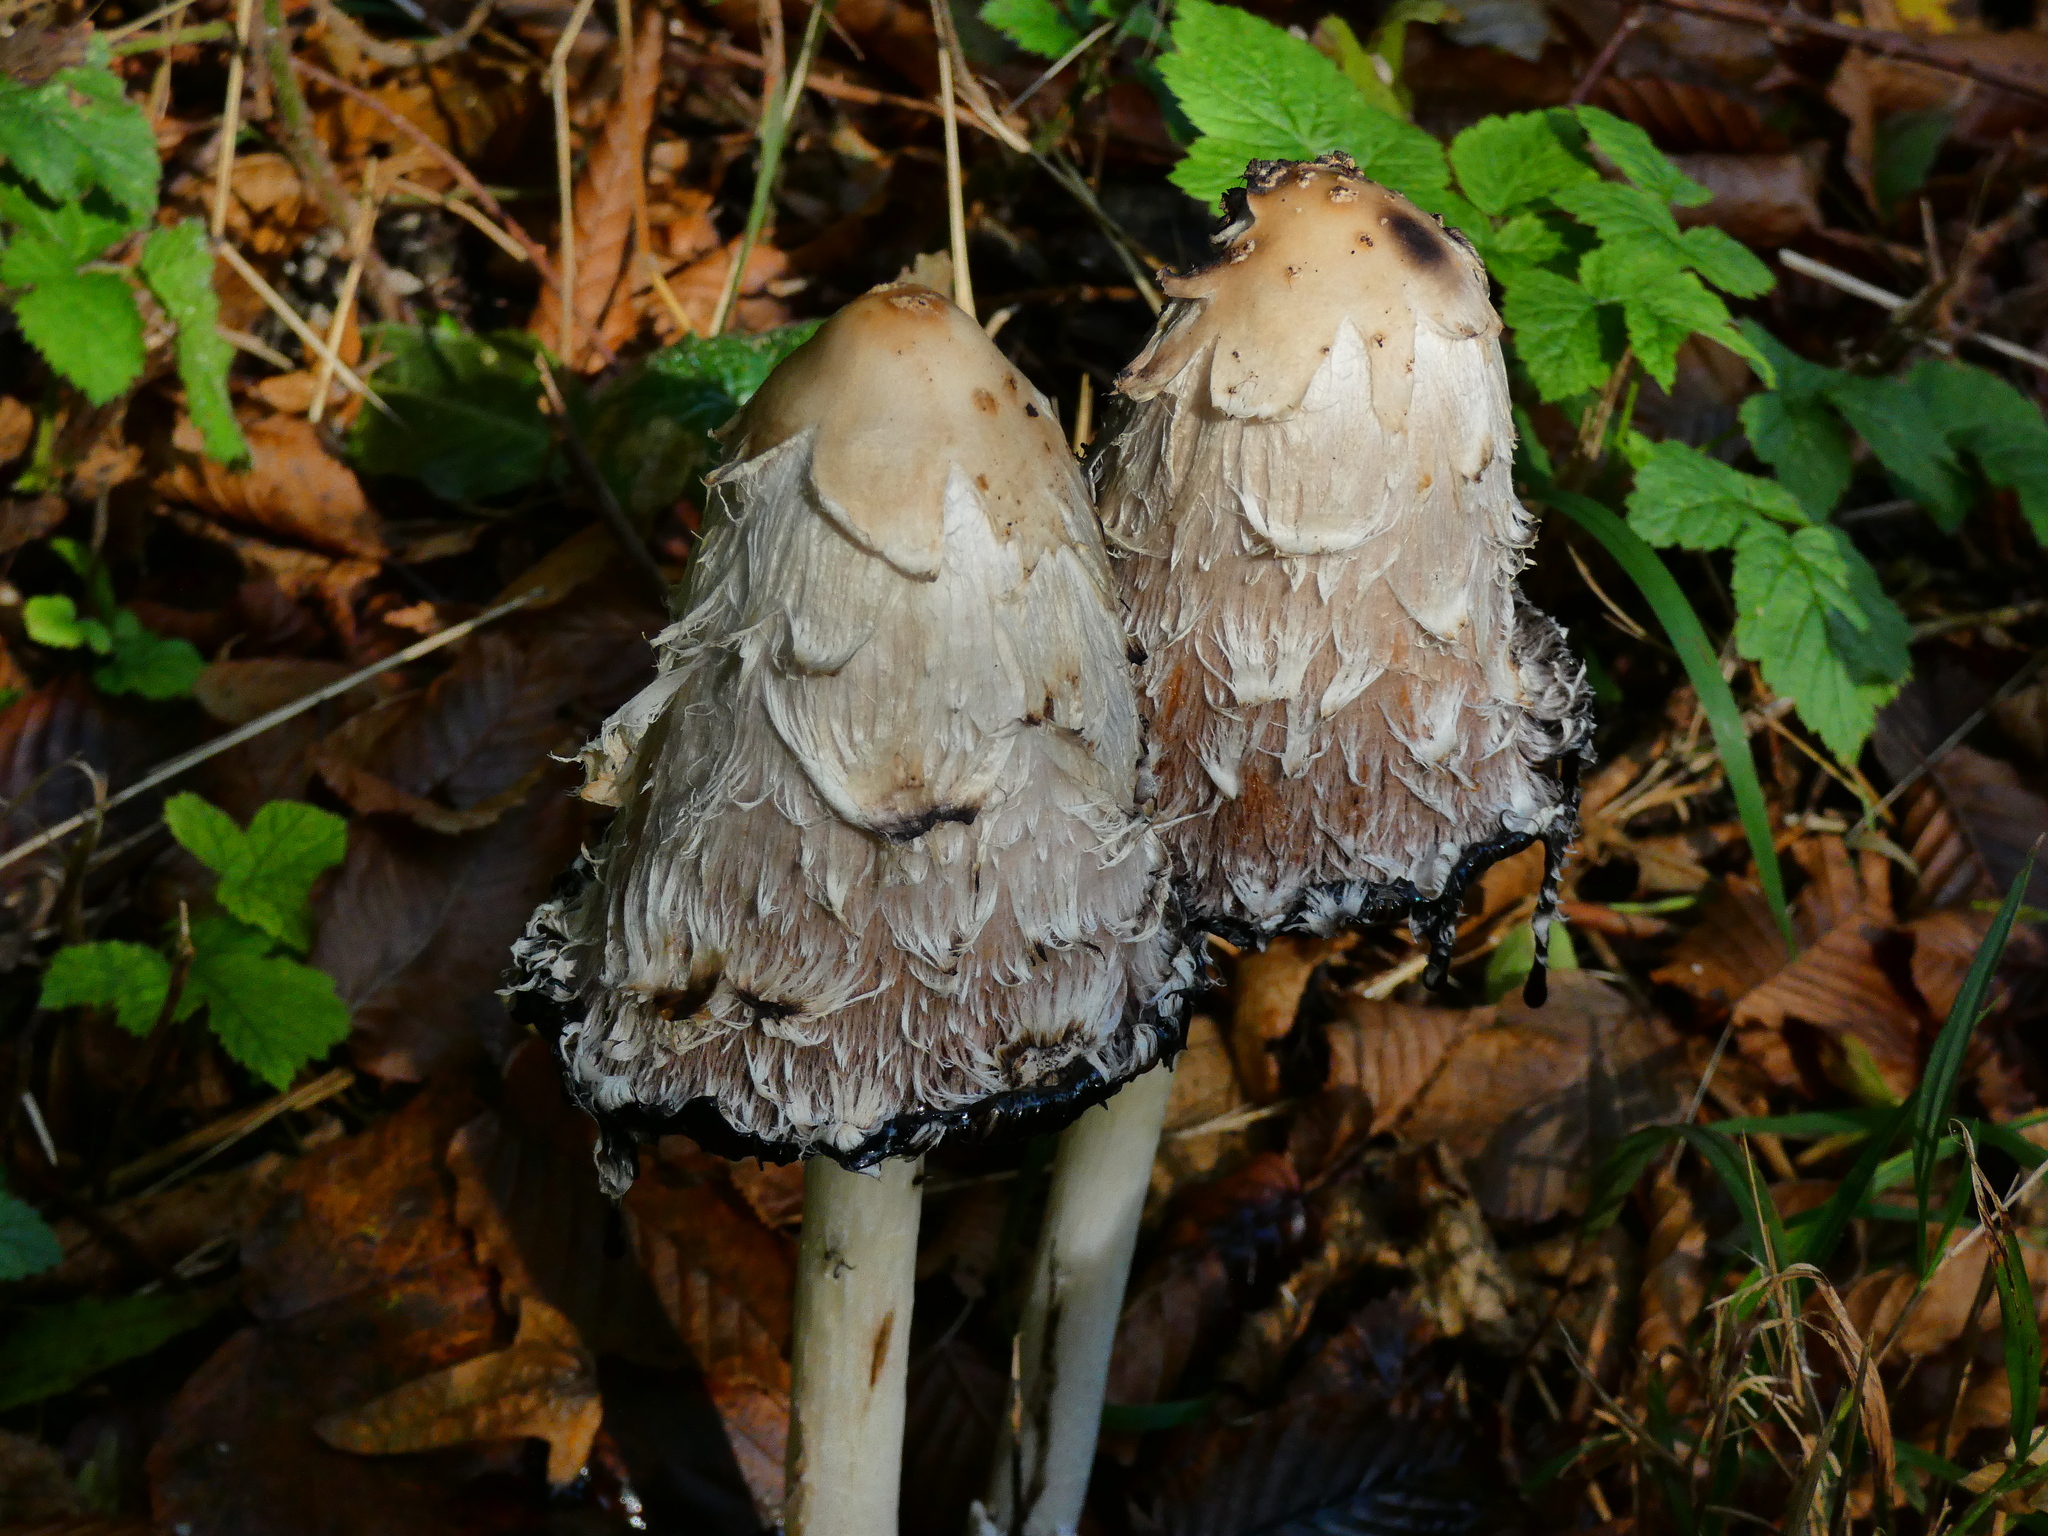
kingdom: Fungi
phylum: Basidiomycota
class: Agaricomycetes
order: Agaricales
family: Agaricaceae
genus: Coprinus
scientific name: Coprinus comatus
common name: Lawyer's wig
